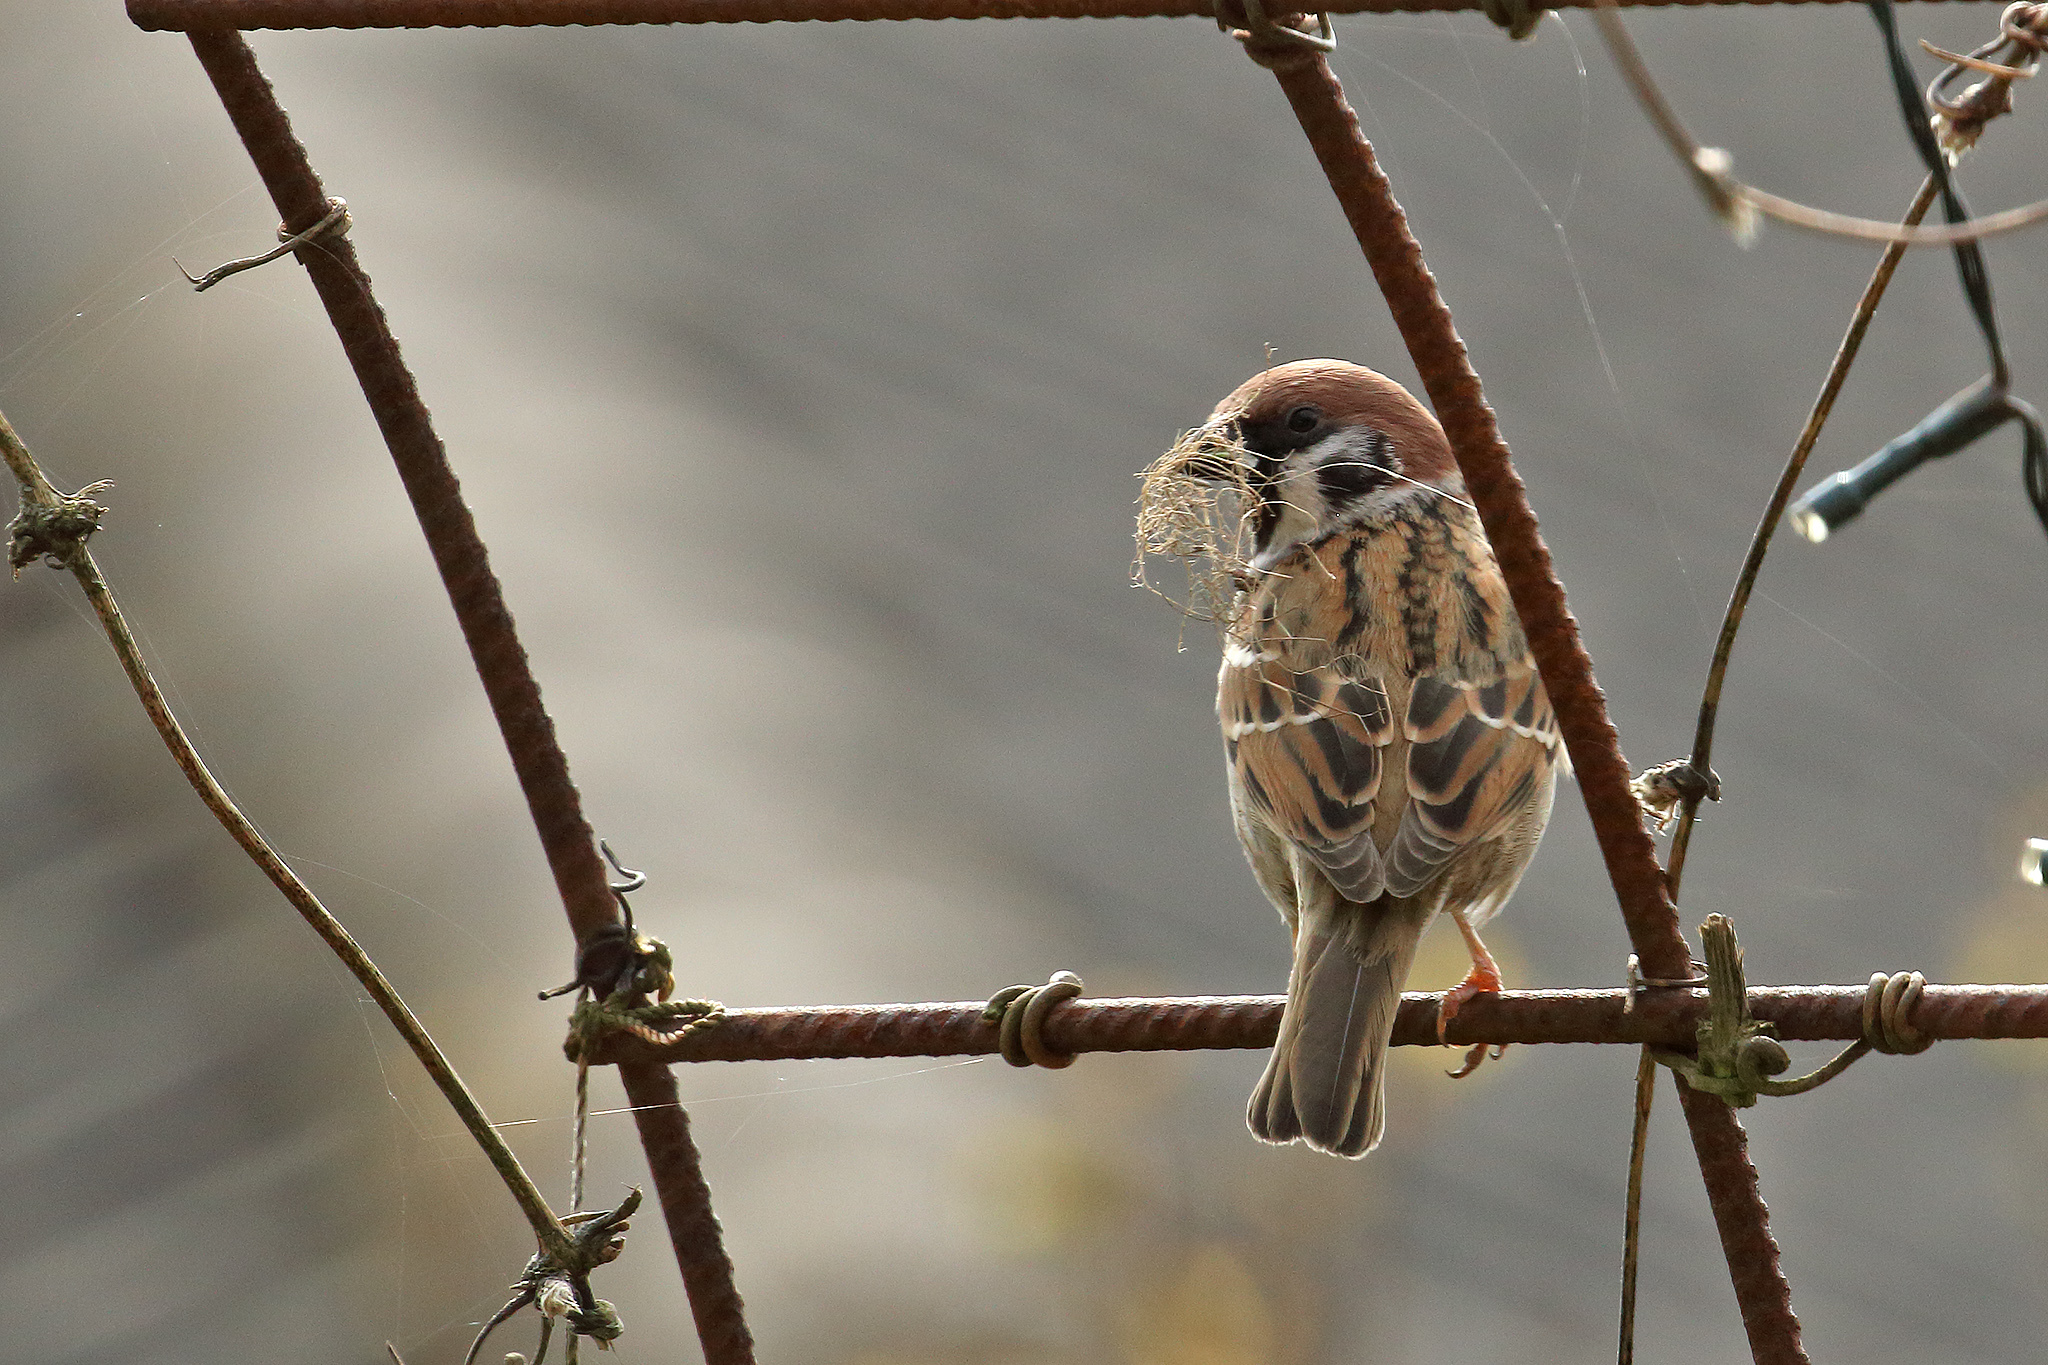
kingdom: Animalia
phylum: Chordata
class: Aves
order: Passeriformes
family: Passeridae
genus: Passer
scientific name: Passer montanus
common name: Eurasian tree sparrow
